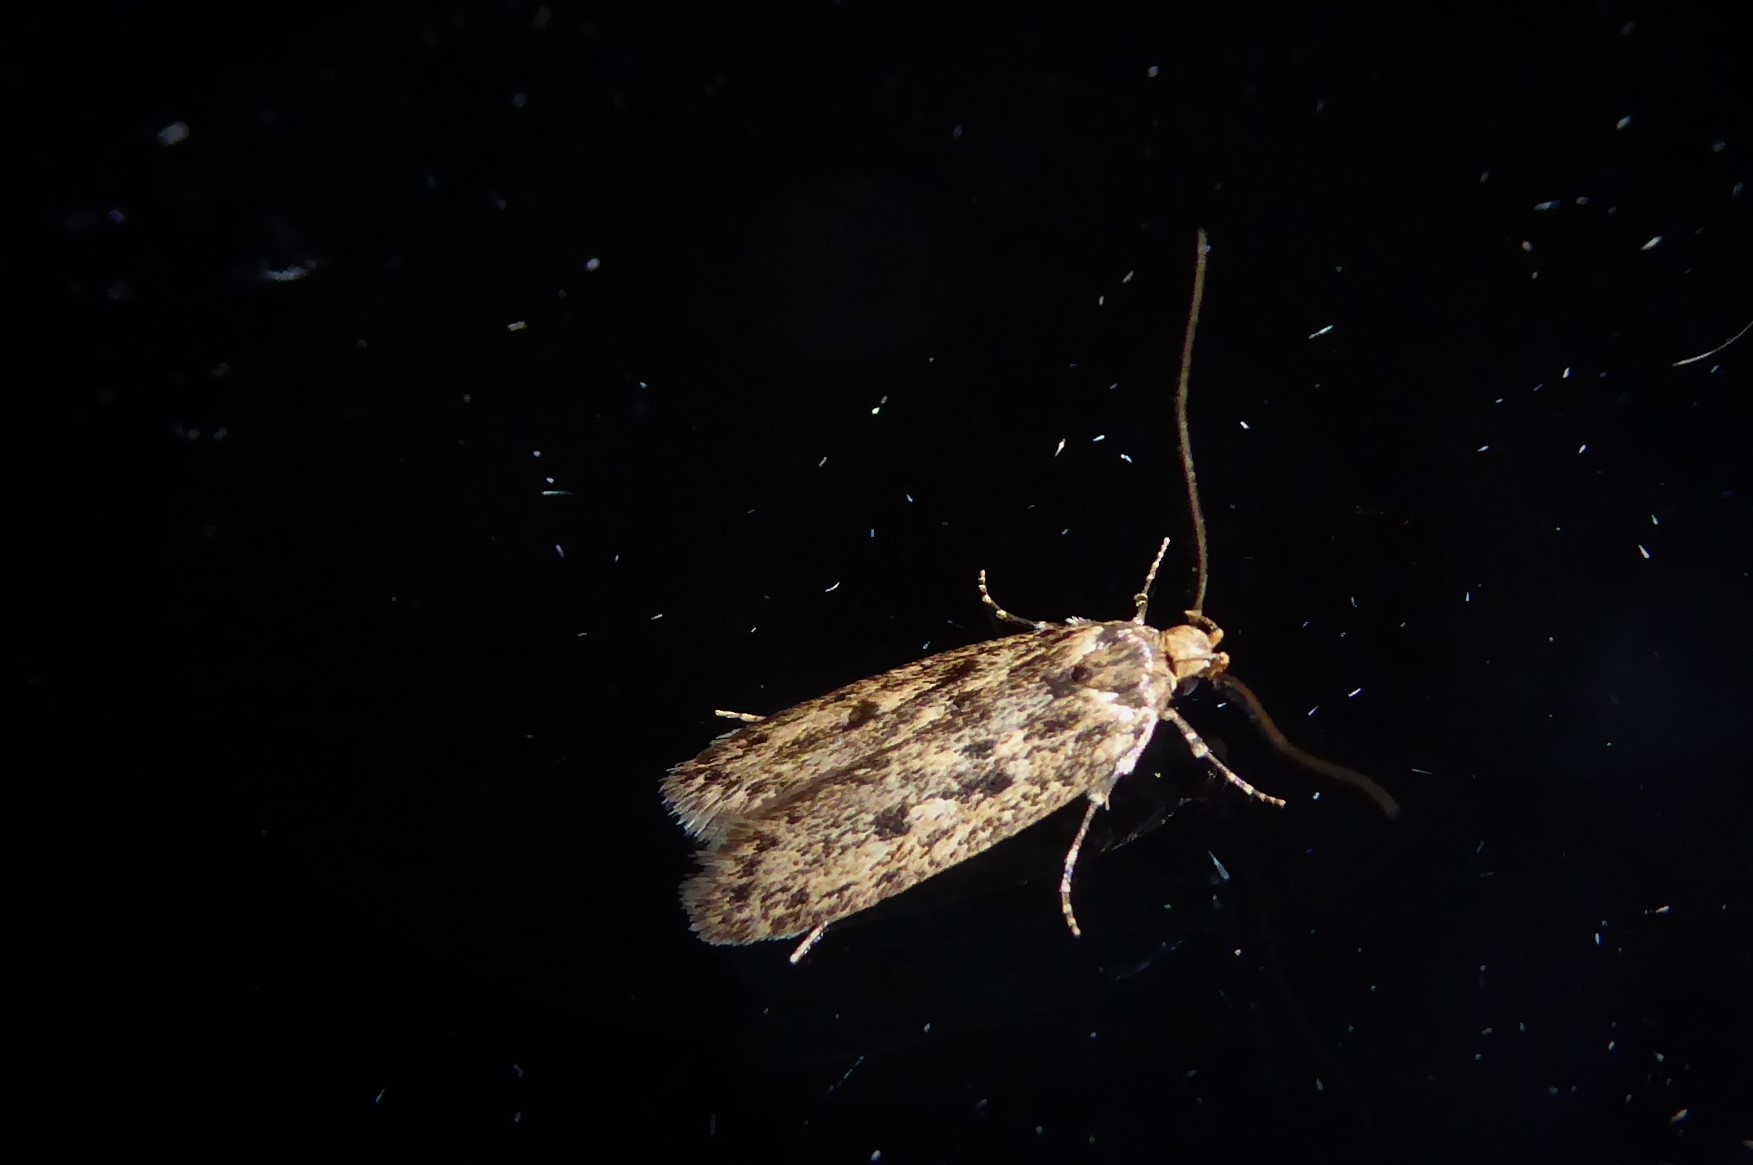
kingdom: Animalia
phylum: Arthropoda
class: Insecta
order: Lepidoptera
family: Oecophoridae
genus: Hofmannophila
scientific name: Hofmannophila pseudospretella
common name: Brown house moth
